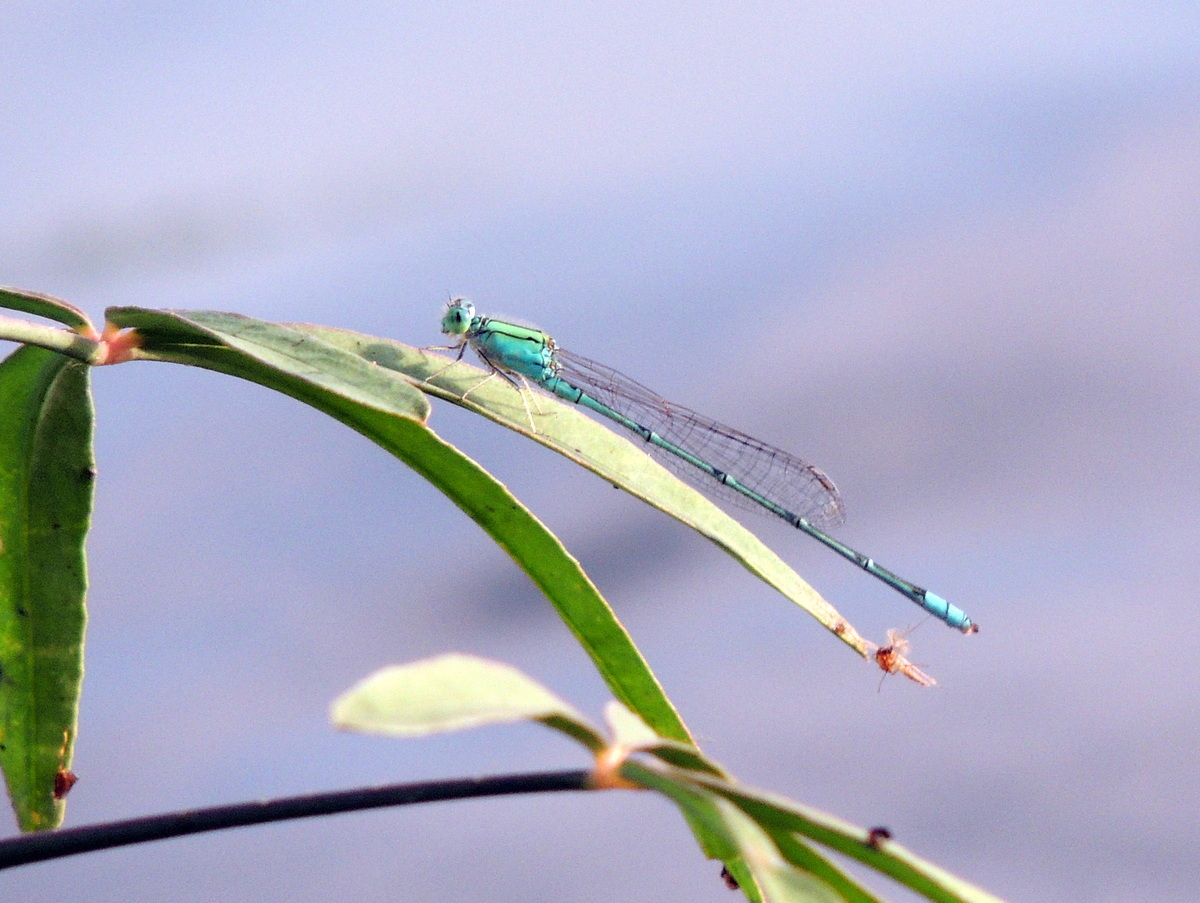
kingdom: Animalia
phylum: Arthropoda
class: Insecta
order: Odonata
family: Coenagrionidae
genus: Pseudagrion
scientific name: Pseudagrion decorum
